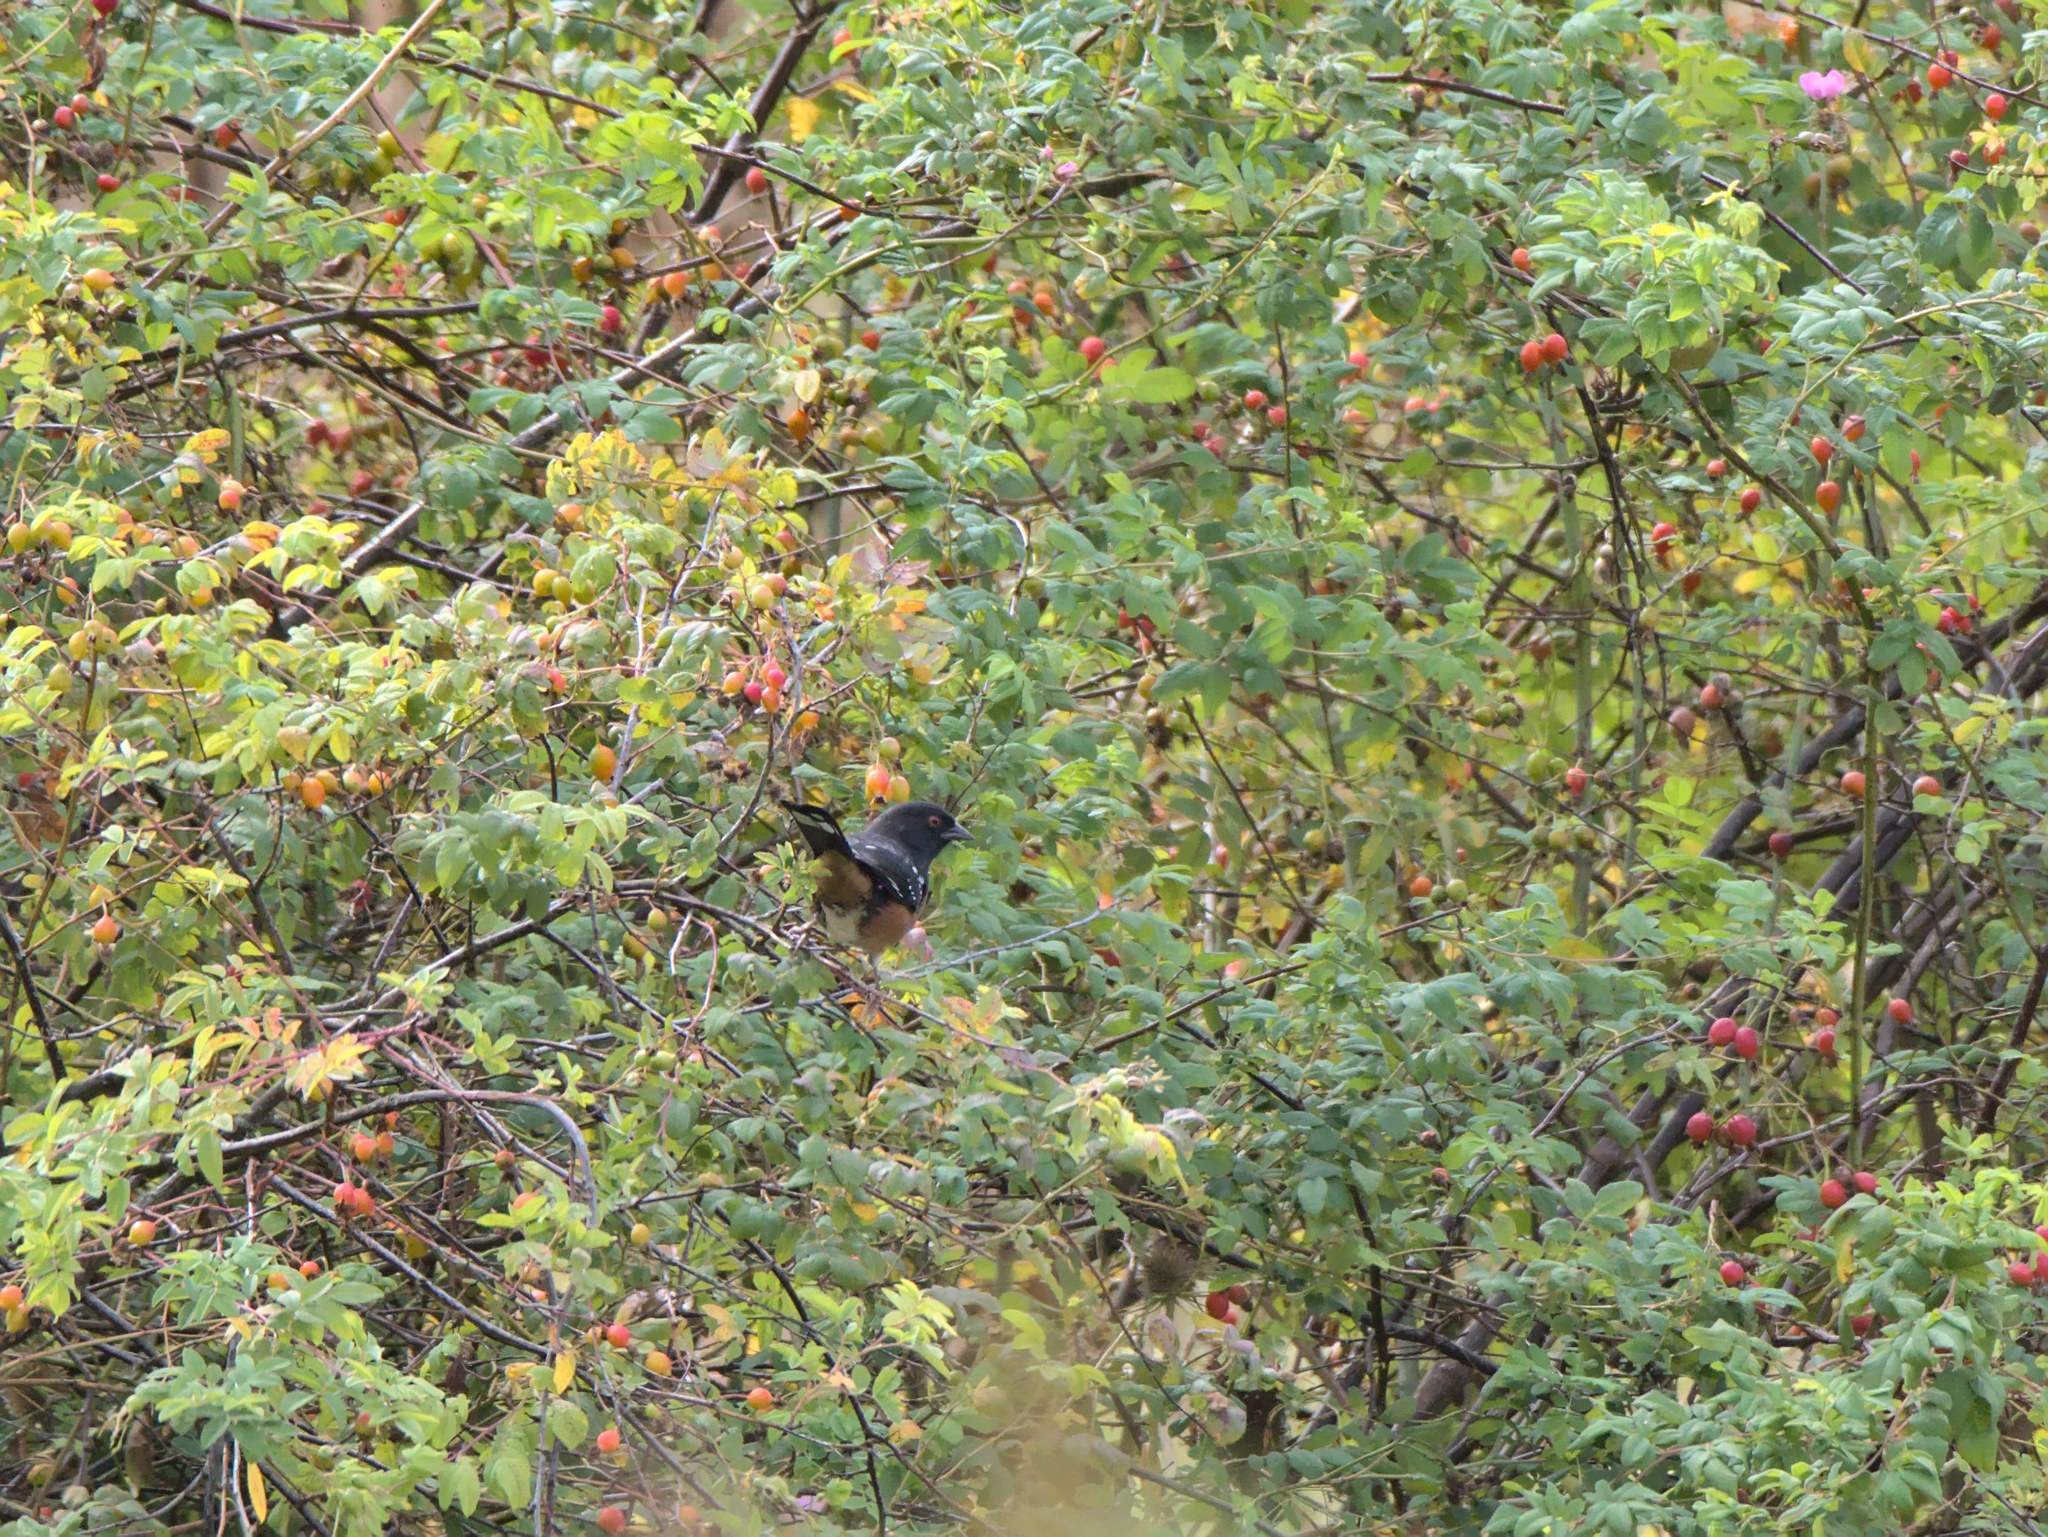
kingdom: Animalia
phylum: Chordata
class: Aves
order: Passeriformes
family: Passerellidae
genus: Pipilo
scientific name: Pipilo maculatus
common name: Spotted towhee
